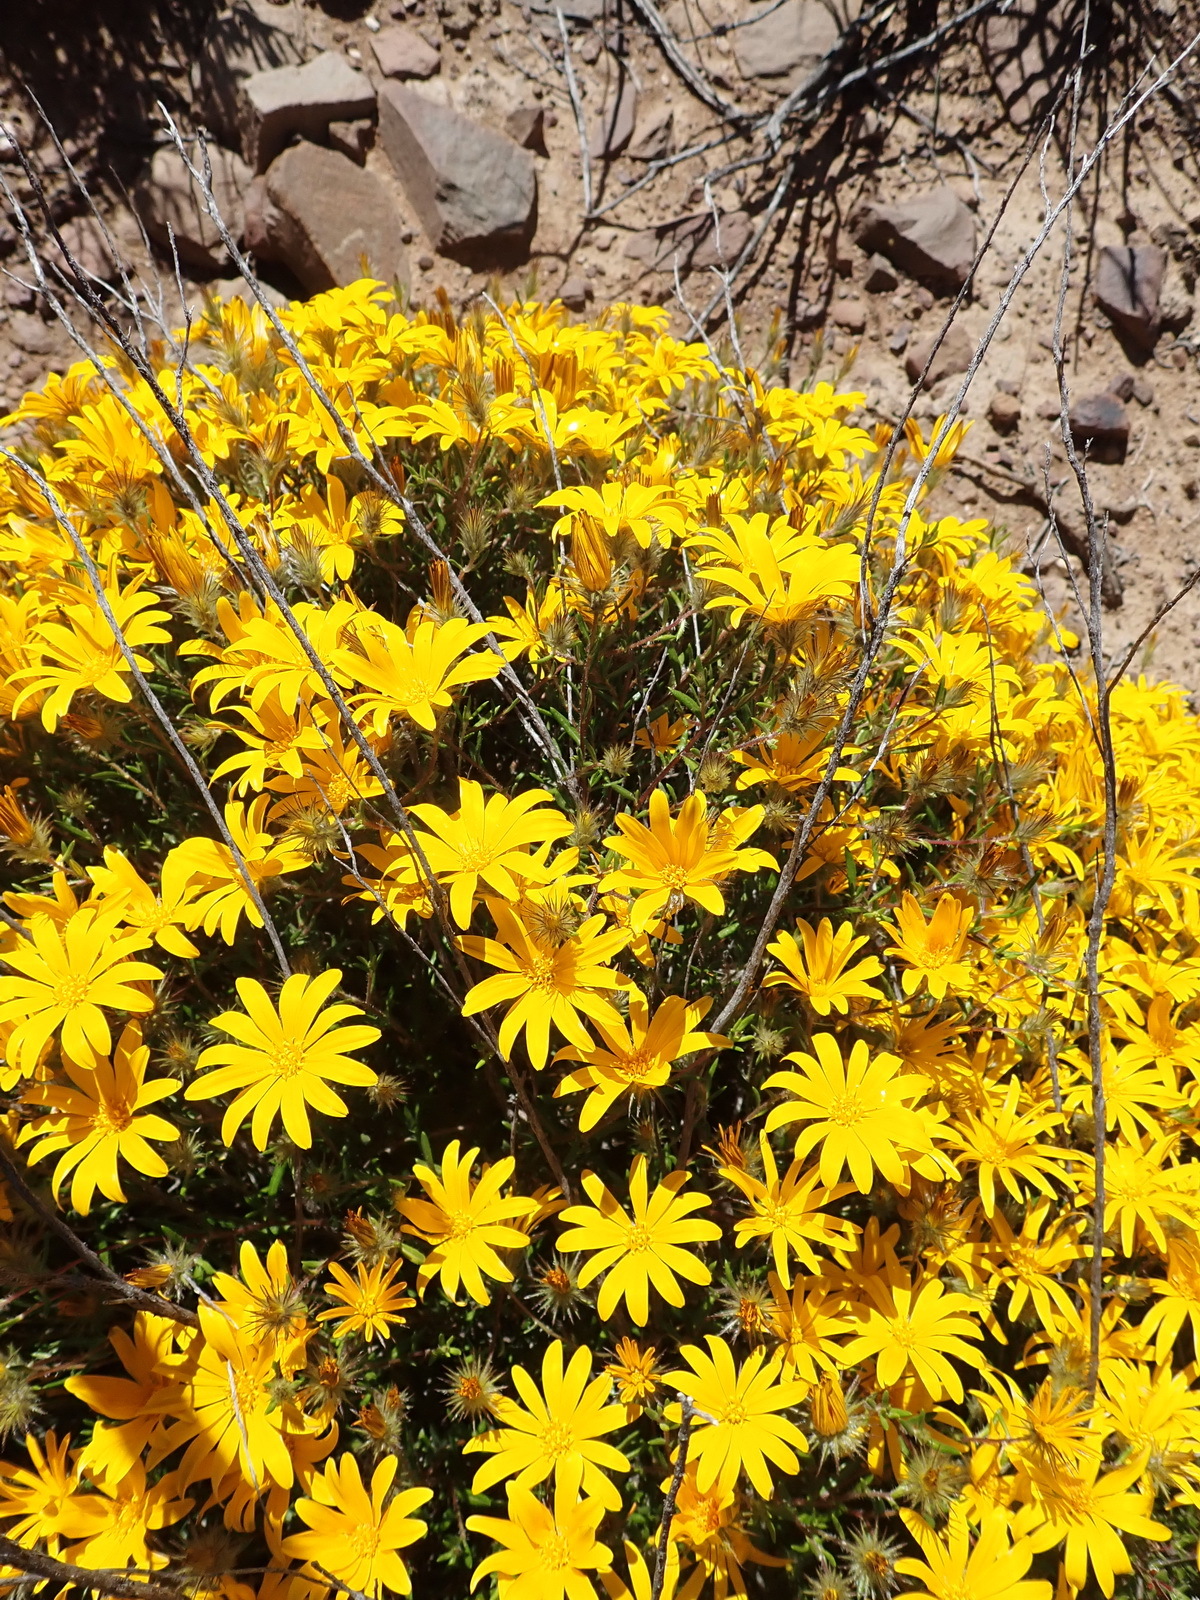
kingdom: Plantae
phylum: Tracheophyta
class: Magnoliopsida
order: Asterales
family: Asteraceae
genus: Hirpicium
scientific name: Hirpicium integrifolium
